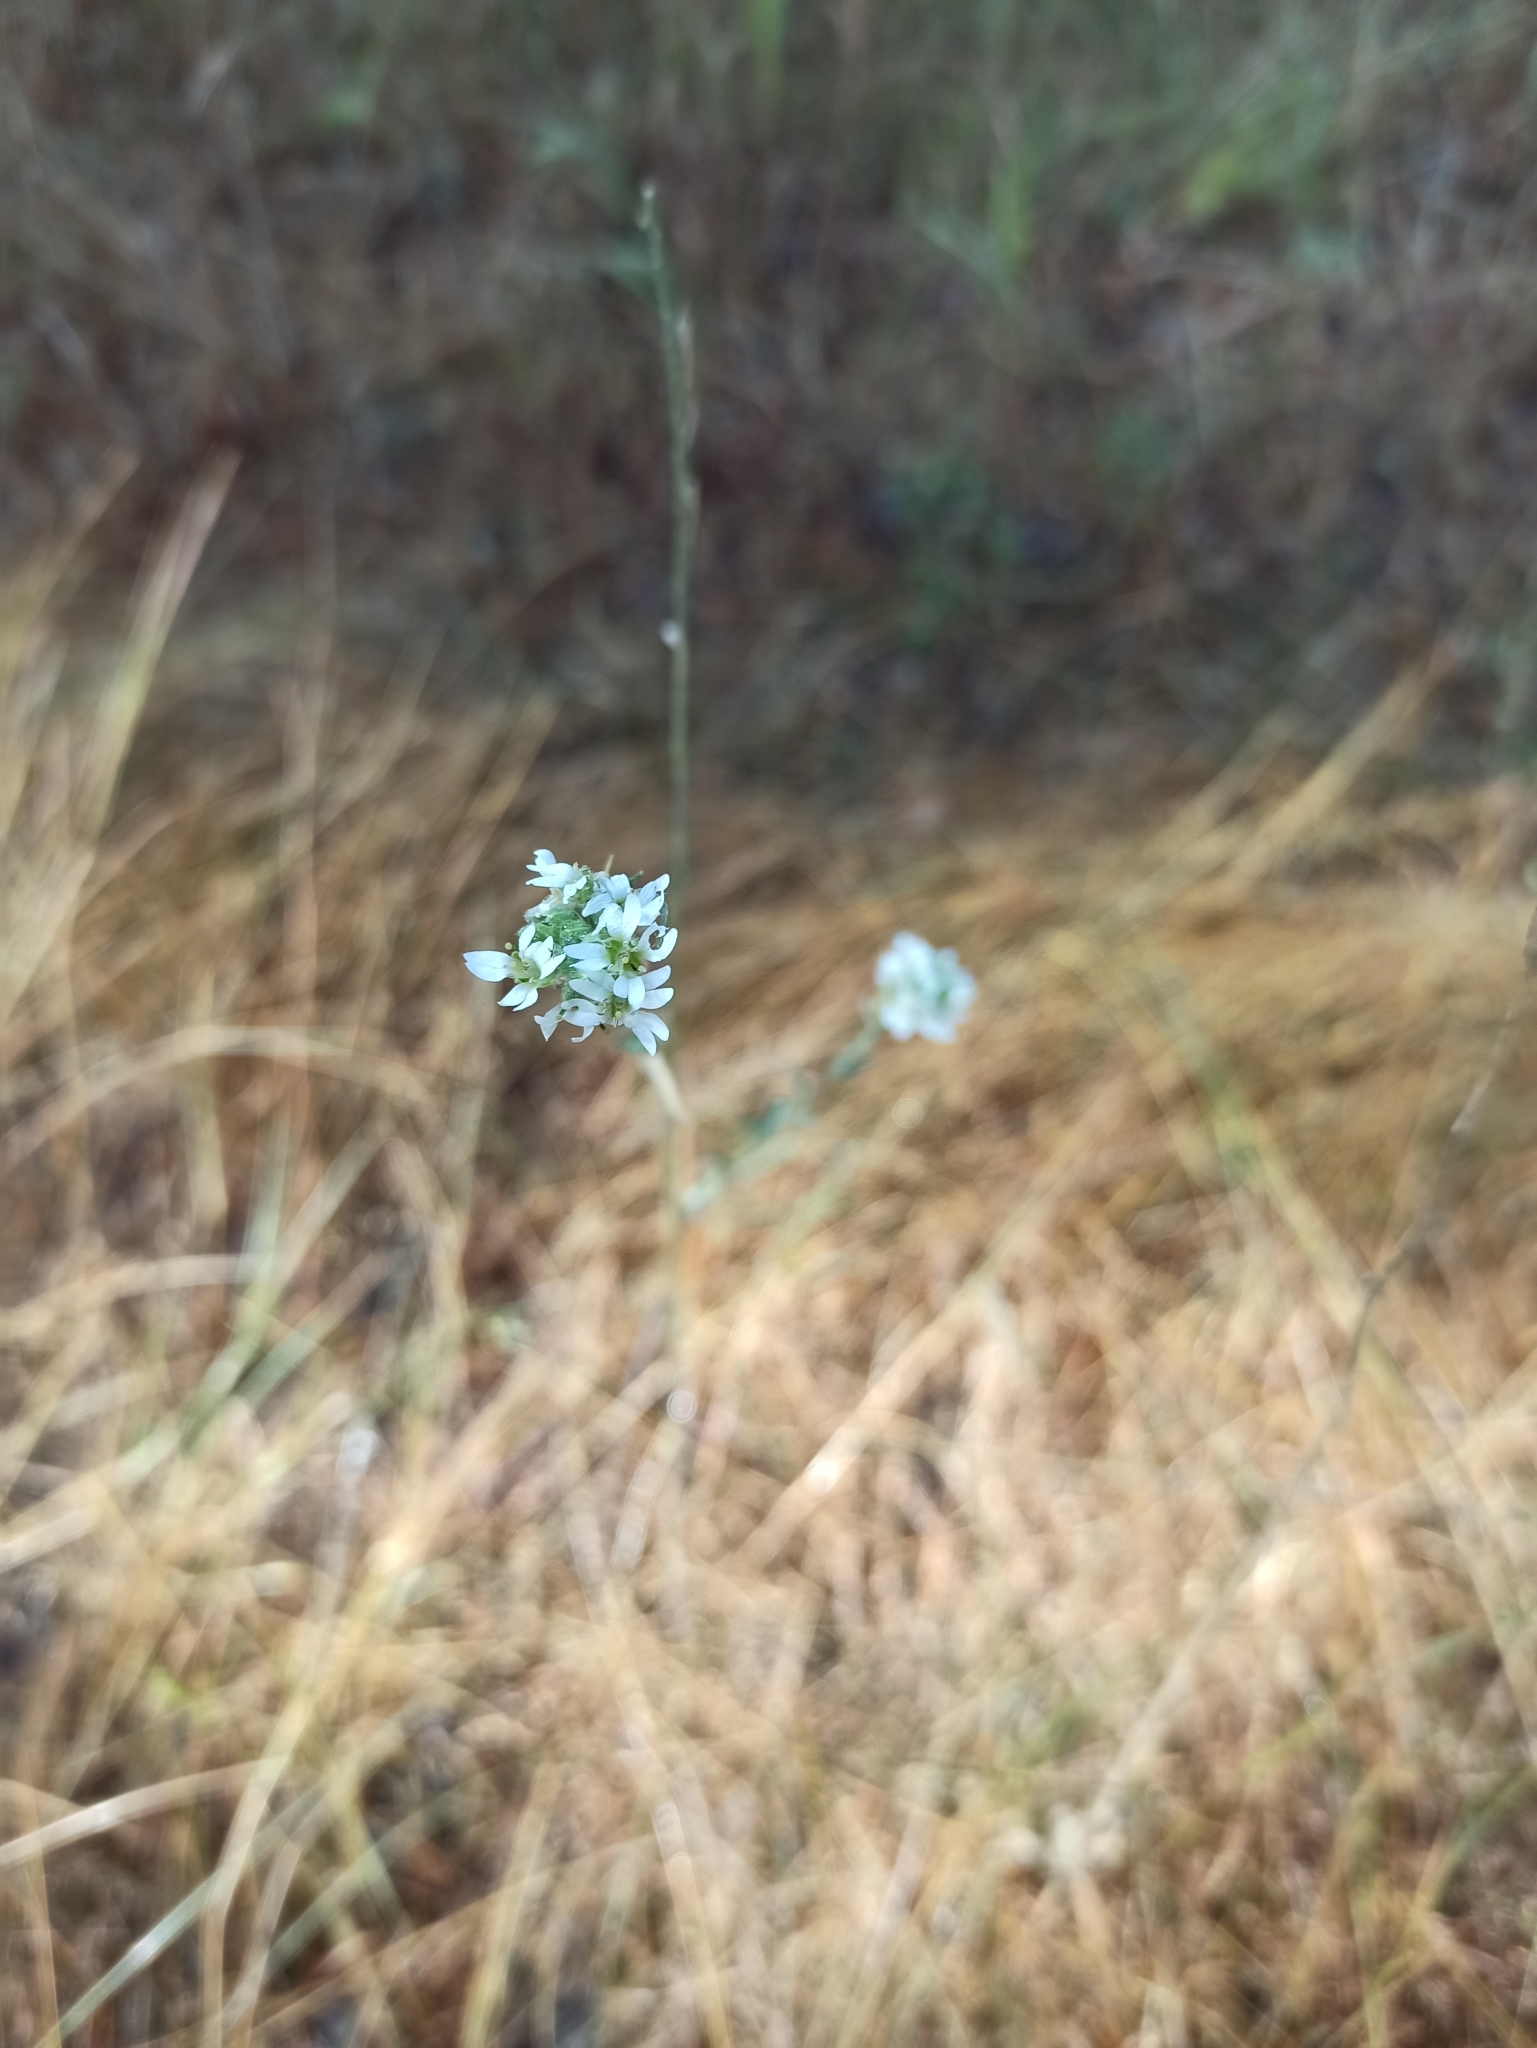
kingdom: Plantae
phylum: Tracheophyta
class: Magnoliopsida
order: Brassicales
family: Brassicaceae
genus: Berteroa
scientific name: Berteroa incana
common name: Hoary alison
